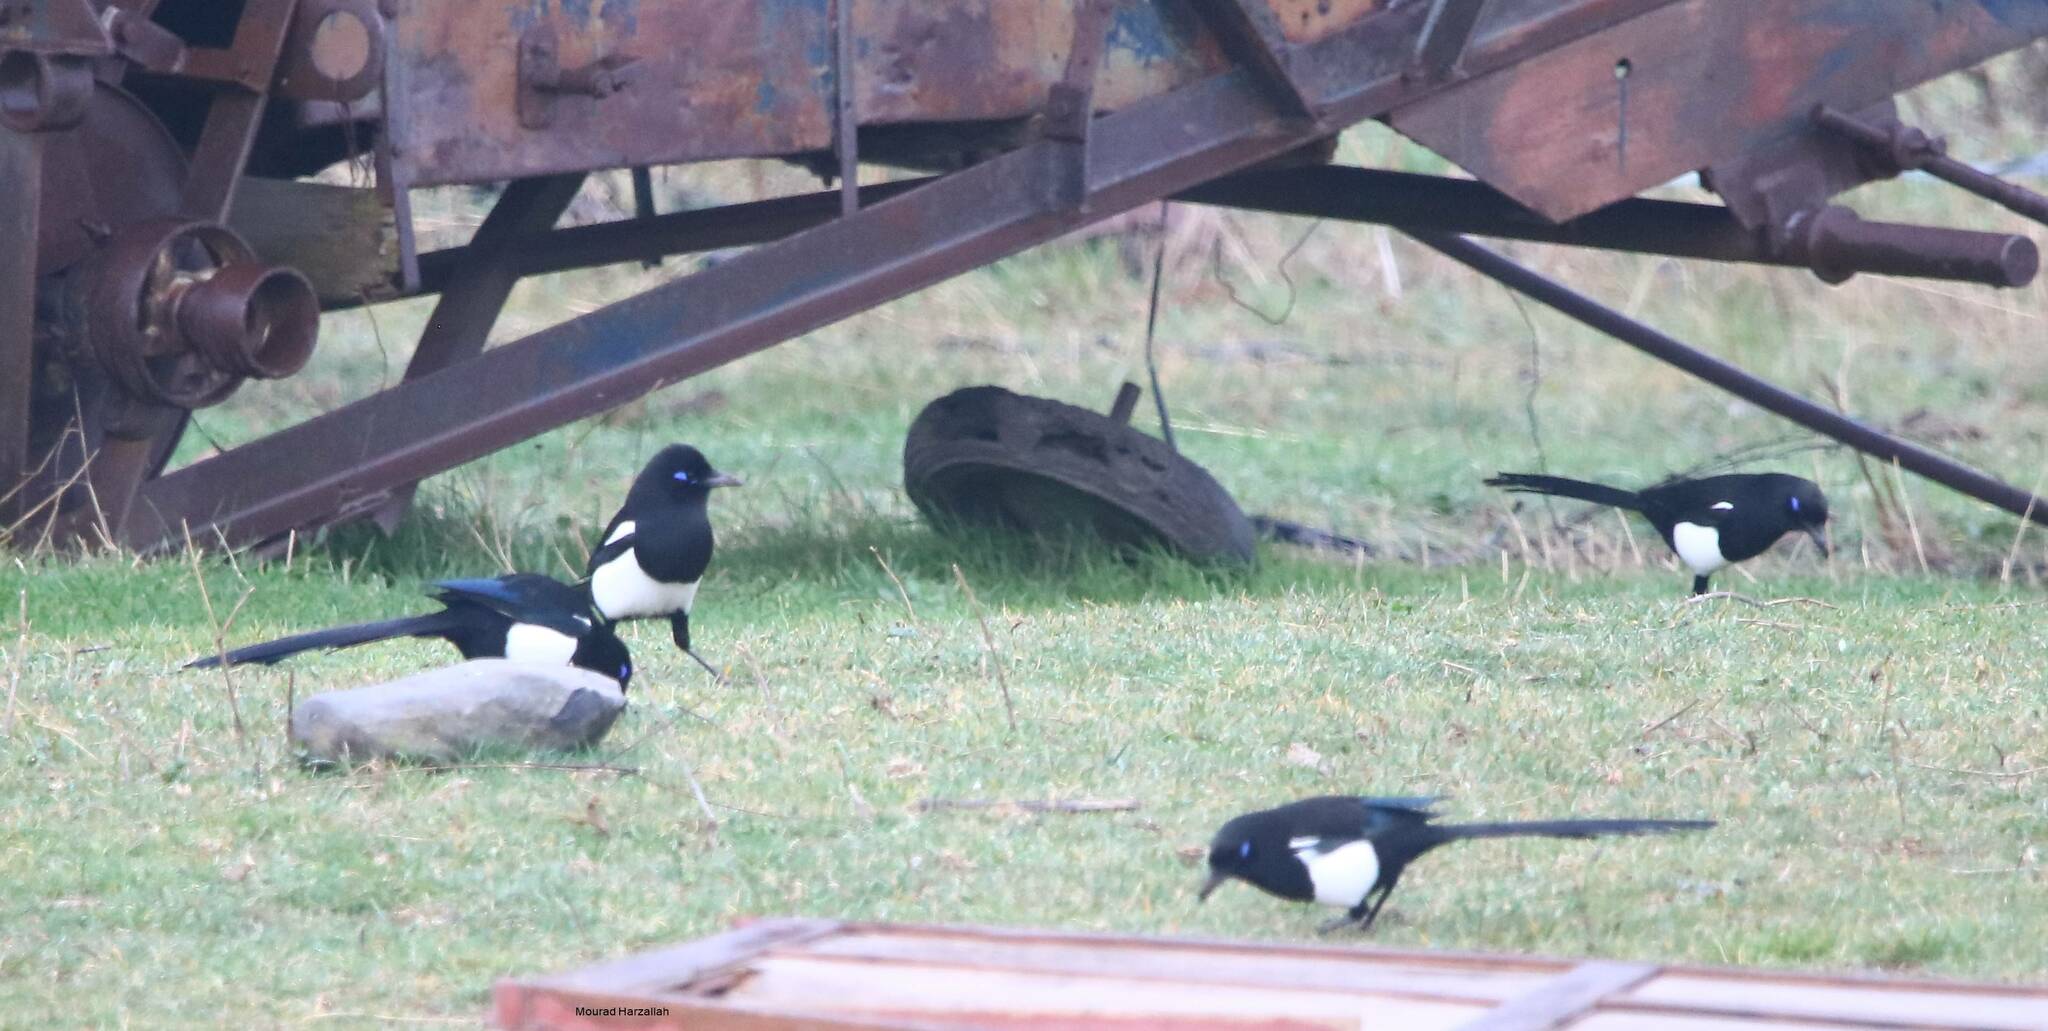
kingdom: Animalia
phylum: Chordata
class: Aves
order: Passeriformes
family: Corvidae
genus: Pica
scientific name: Pica mauritanica
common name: Maghreb magpie
